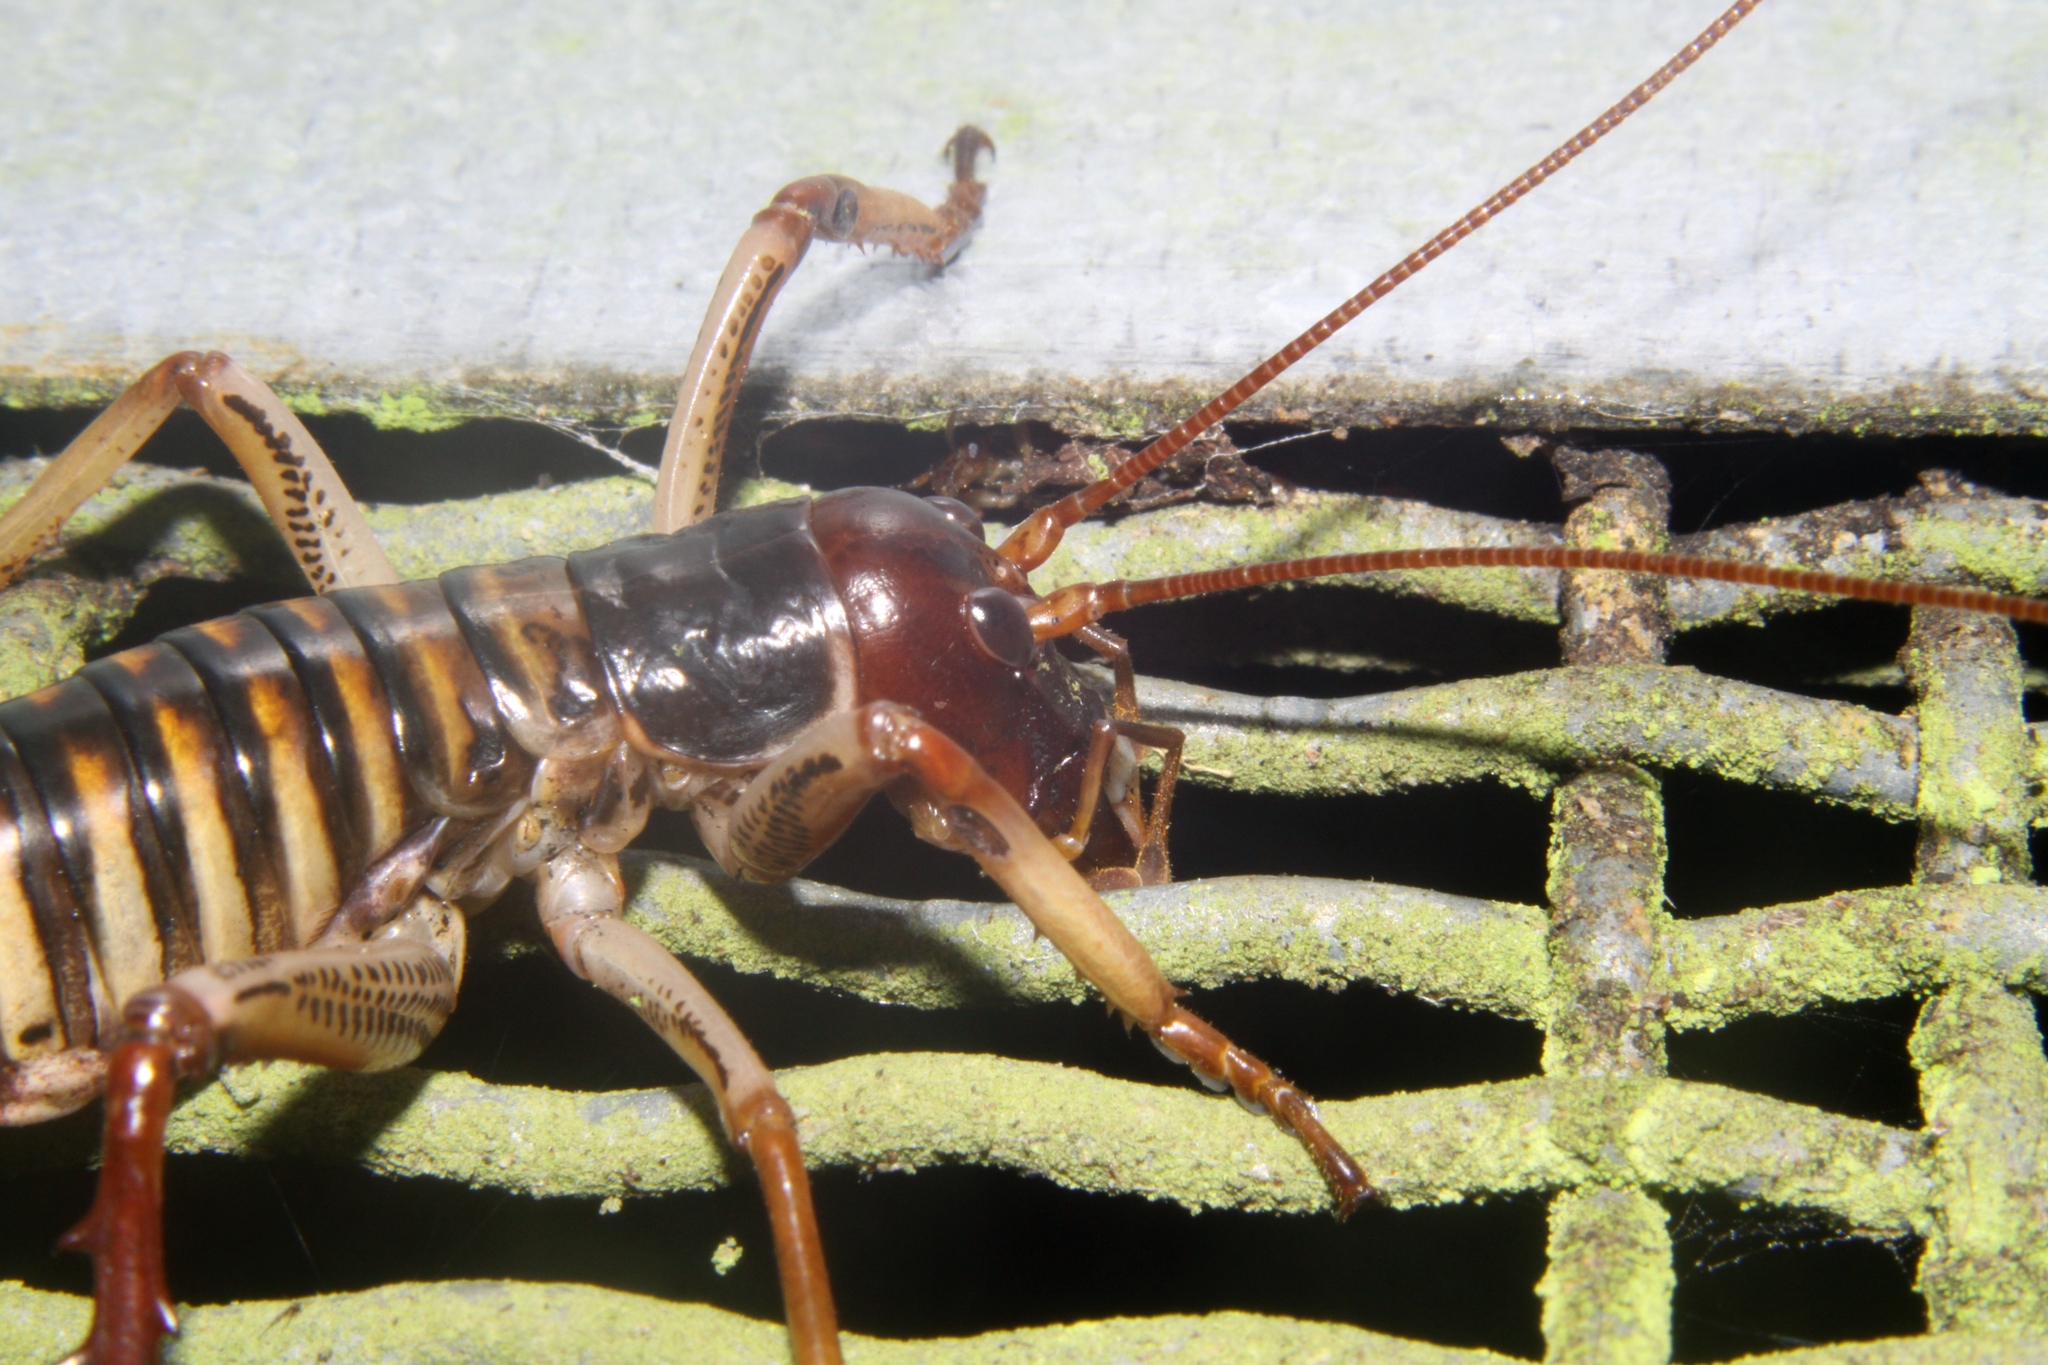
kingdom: Animalia
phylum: Arthropoda
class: Insecta
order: Orthoptera
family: Anostostomatidae
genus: Hemideina
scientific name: Hemideina crassidens
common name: Wellington tree weta
